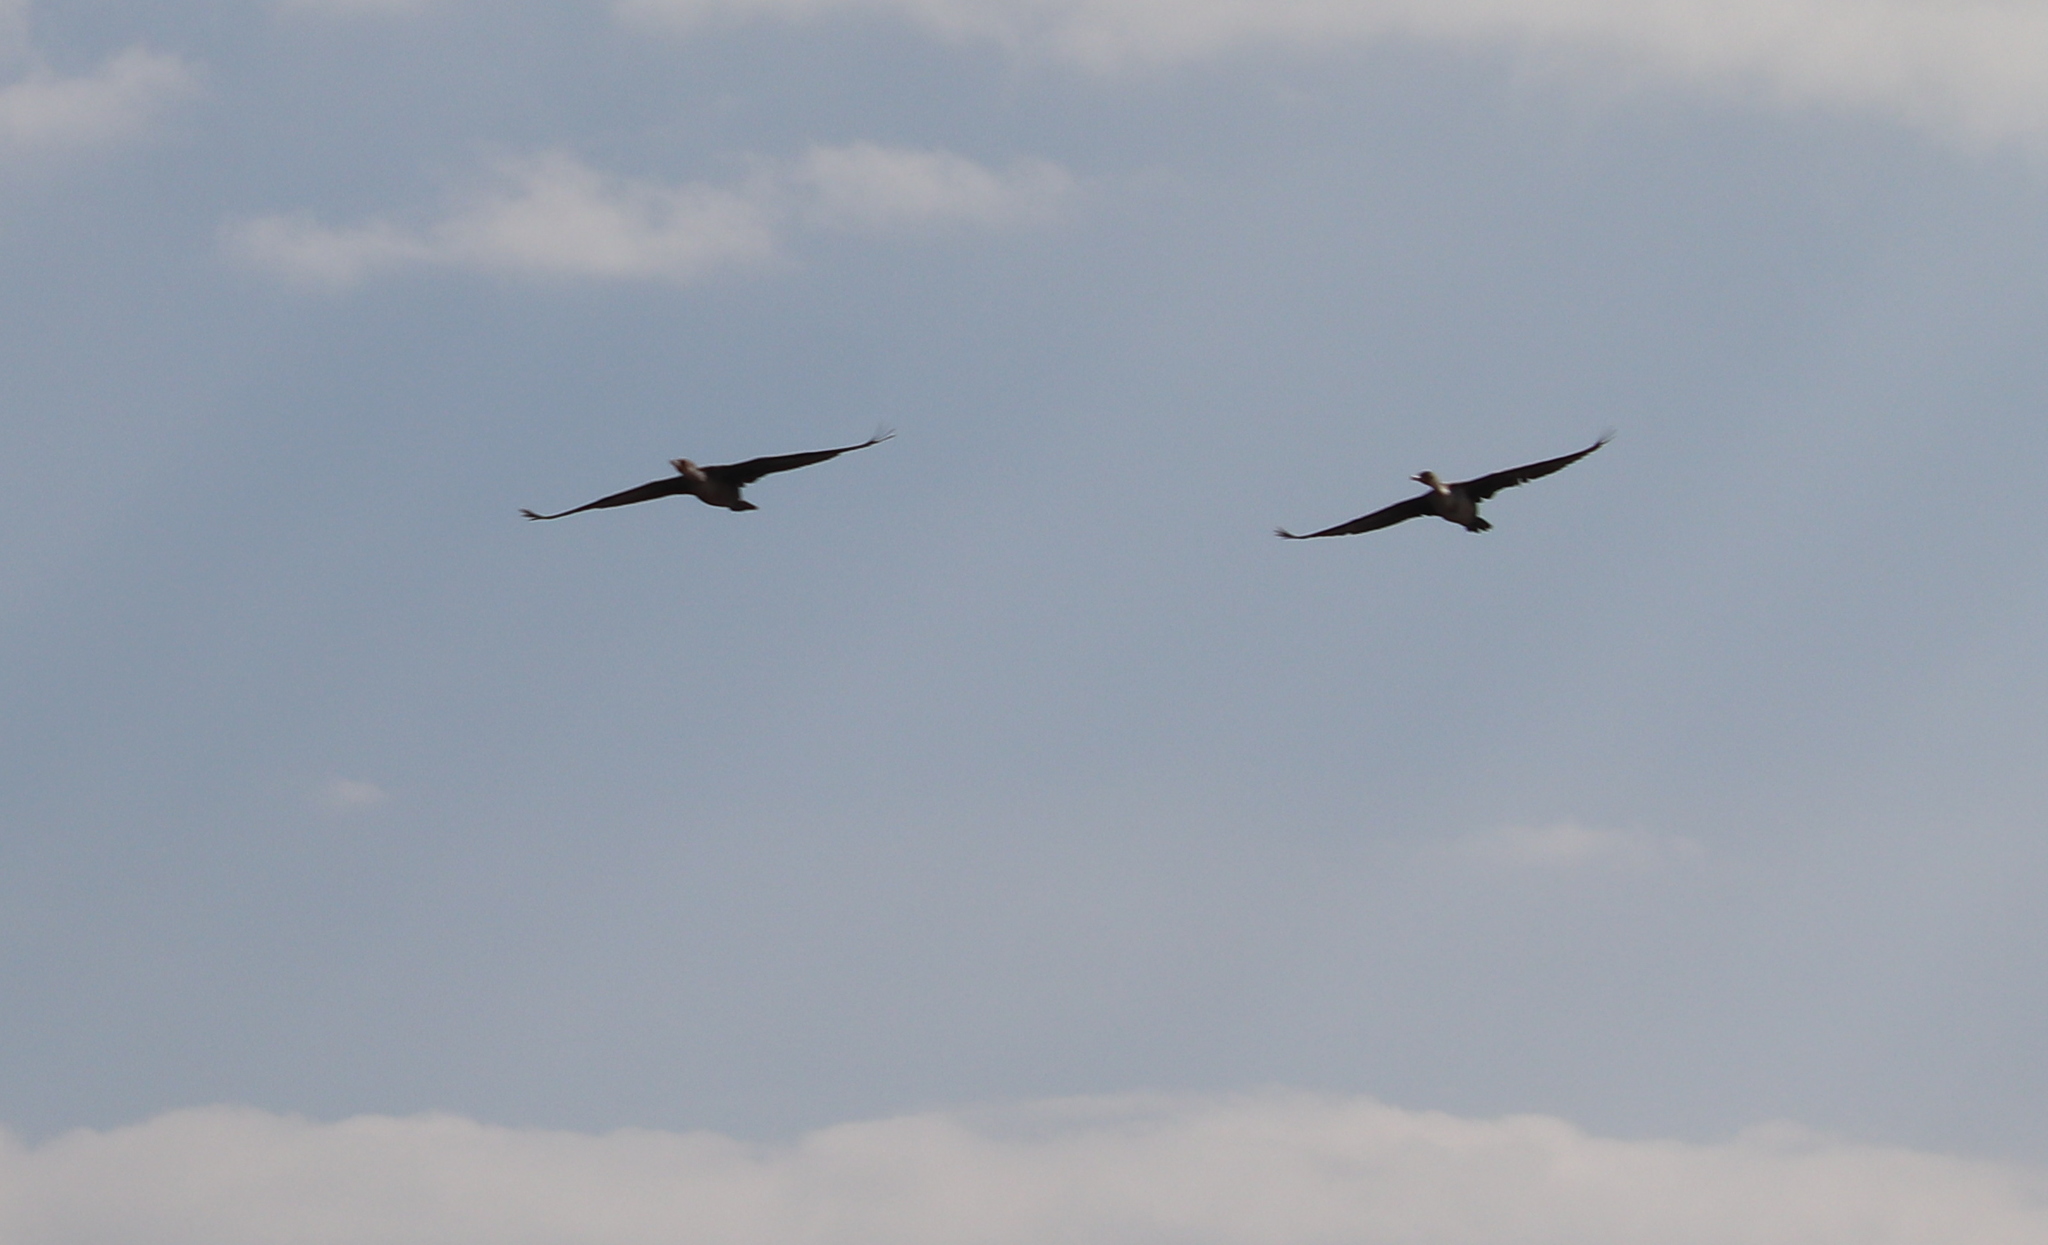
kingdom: Animalia
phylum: Chordata
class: Aves
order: Suliformes
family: Phalacrocoracidae
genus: Phalacrocorax
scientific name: Phalacrocorax auritus
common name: Double-crested cormorant
